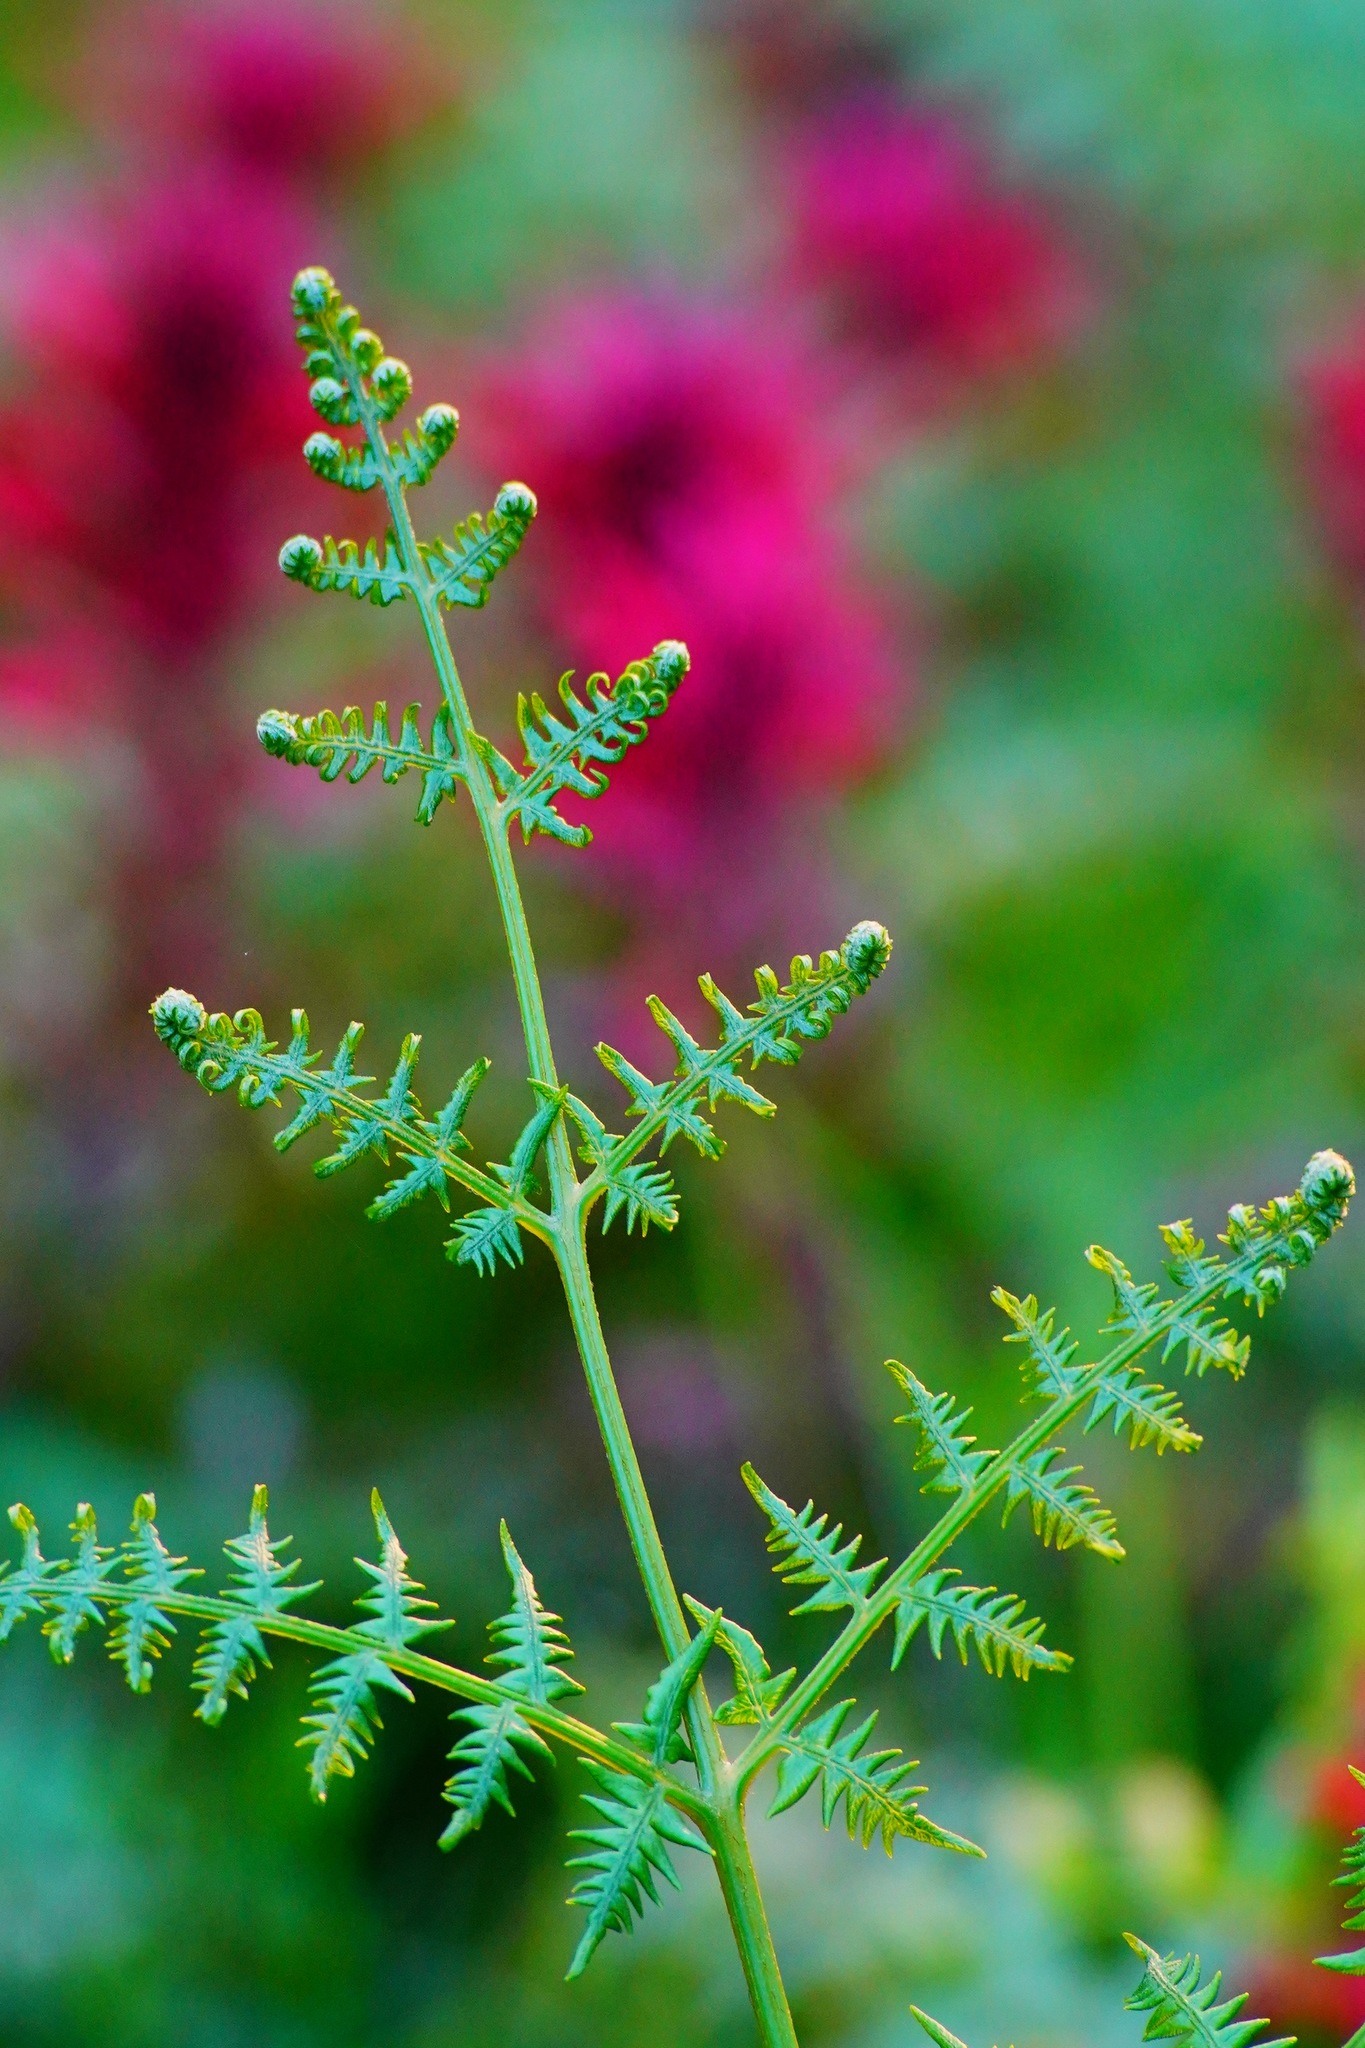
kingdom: Plantae
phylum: Tracheophyta
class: Polypodiopsida
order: Polypodiales
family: Dennstaedtiaceae
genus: Pteridium
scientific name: Pteridium aquilinum
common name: Bracken
